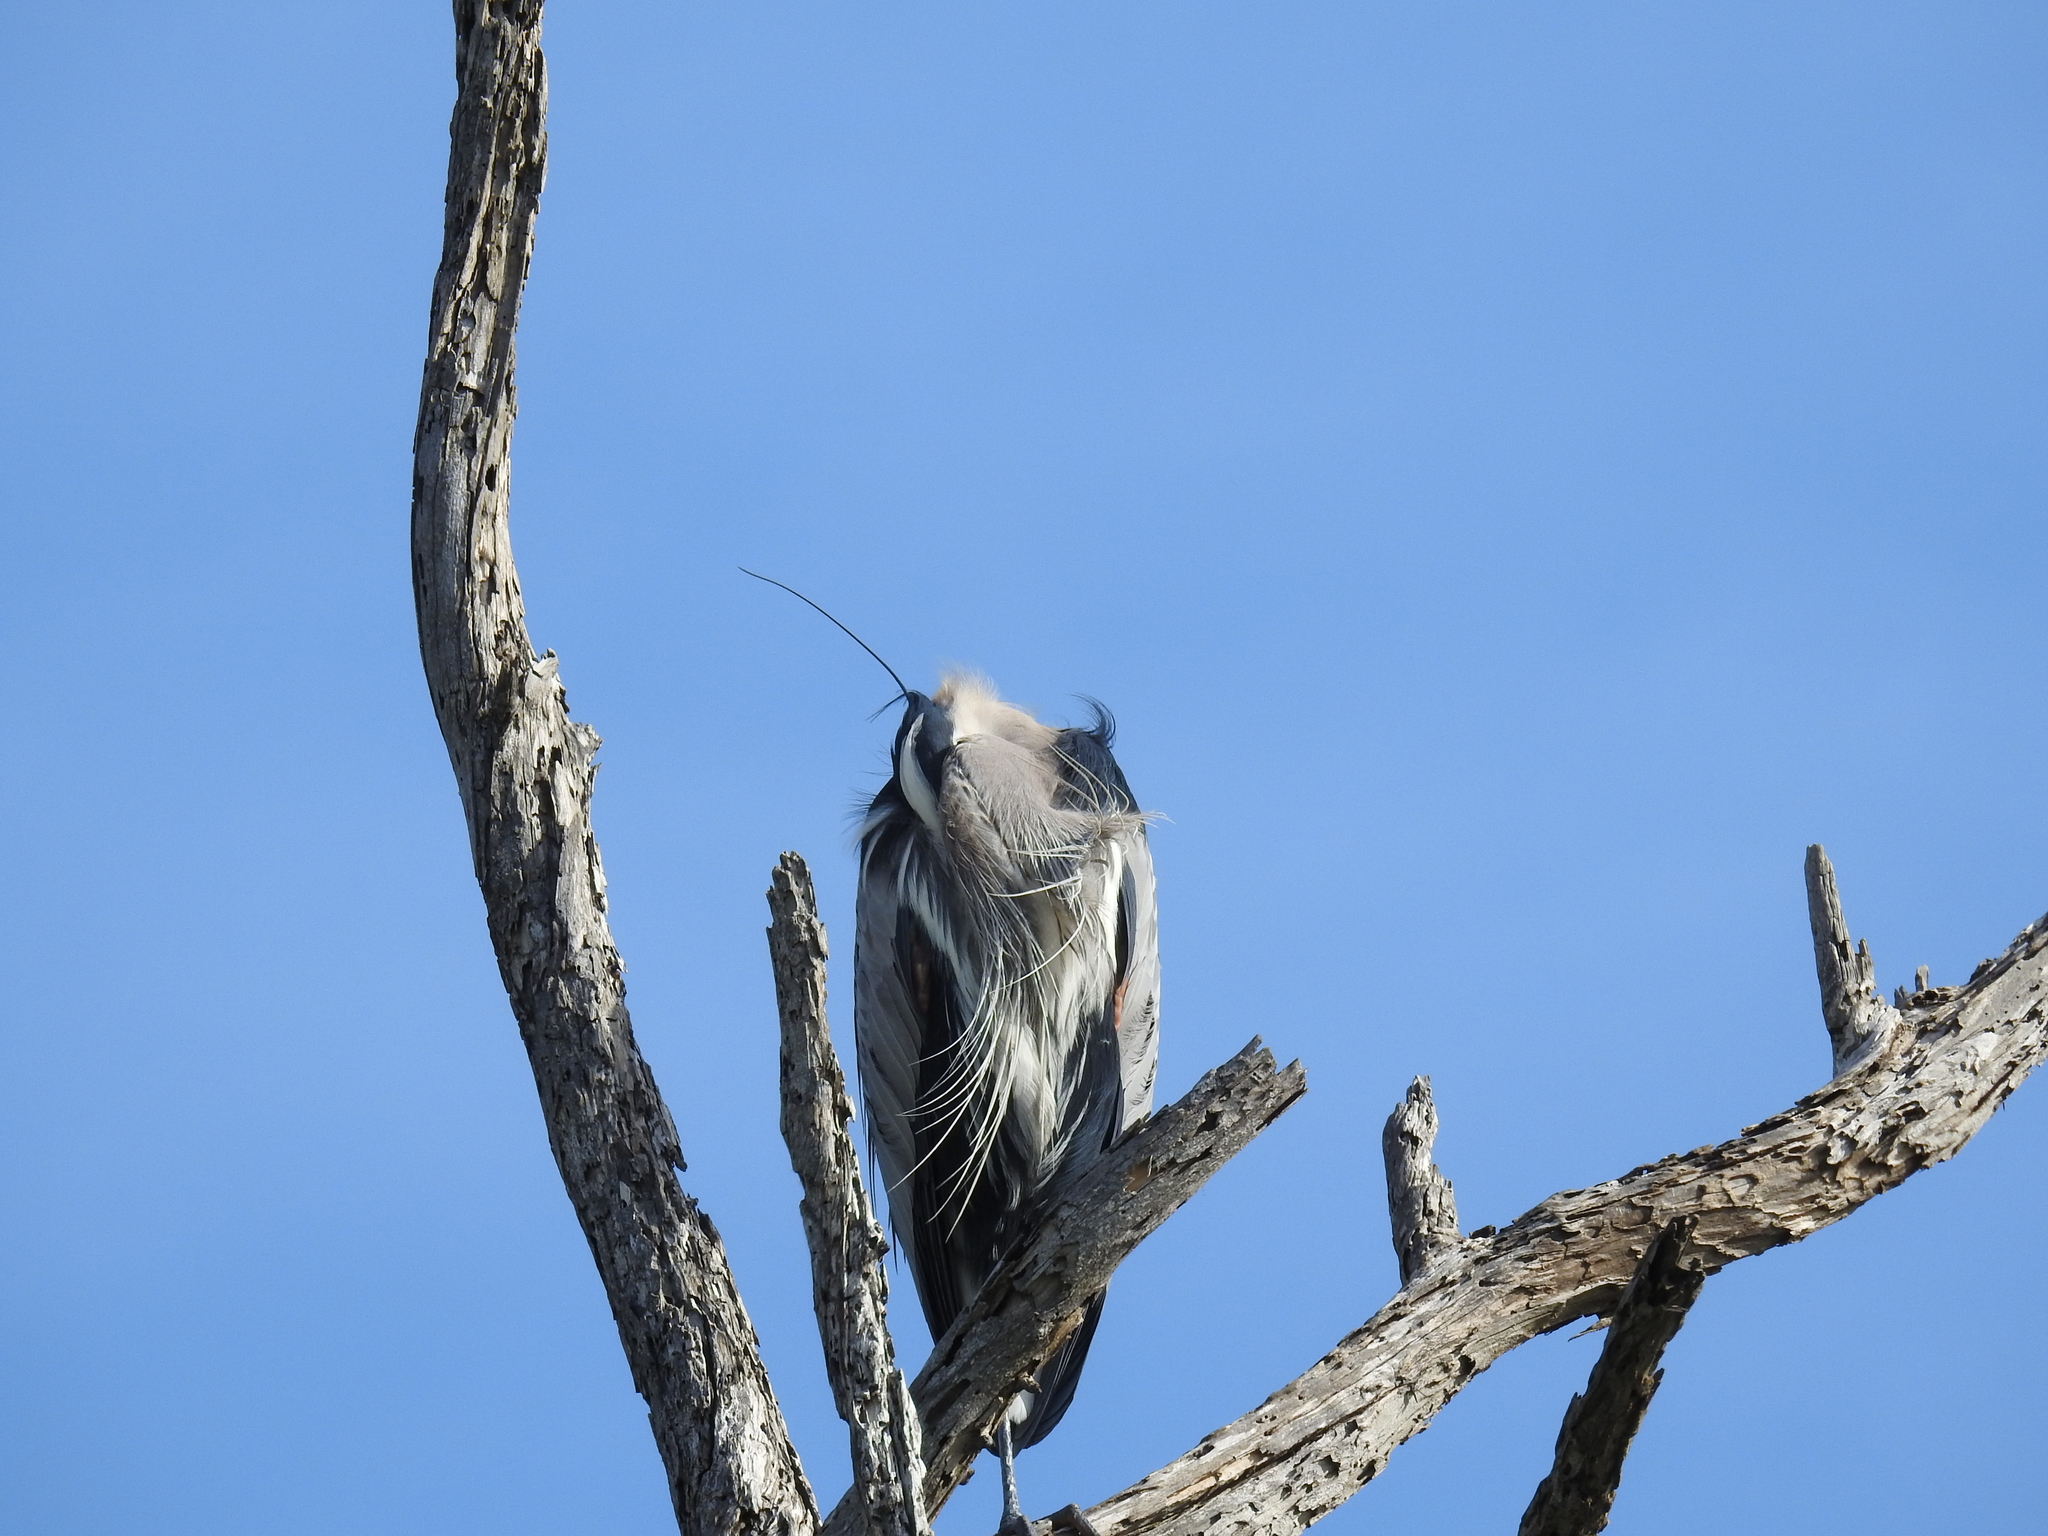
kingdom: Animalia
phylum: Chordata
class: Aves
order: Pelecaniformes
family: Ardeidae
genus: Ardea
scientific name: Ardea herodias
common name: Great blue heron
